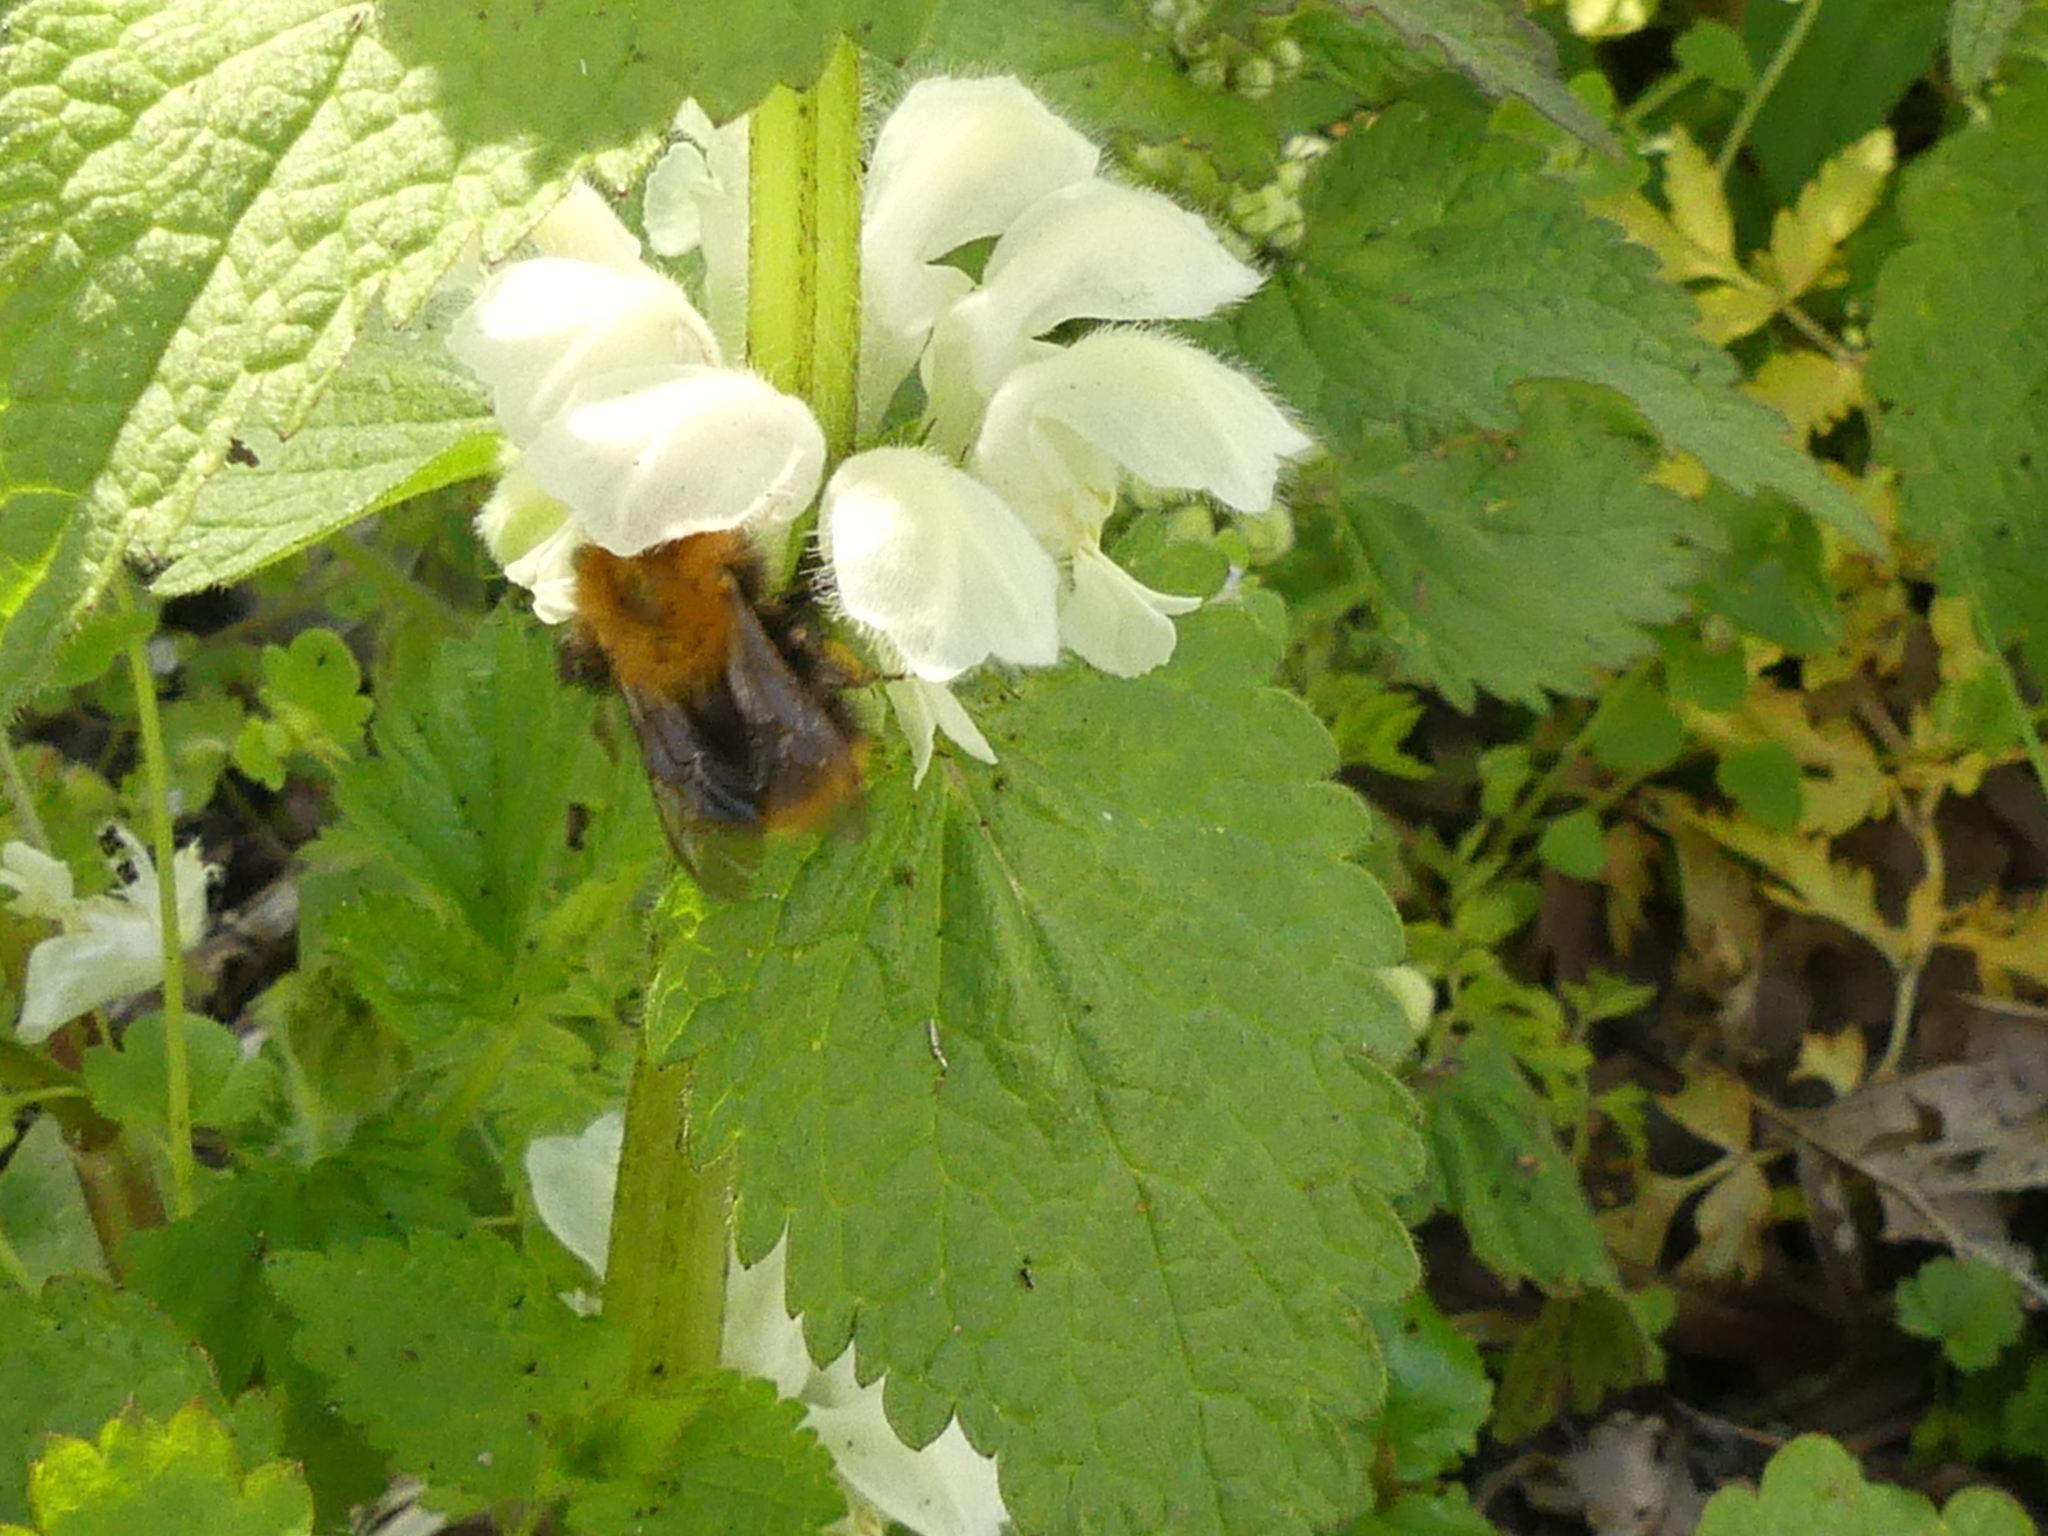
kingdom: Animalia
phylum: Arthropoda
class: Insecta
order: Hymenoptera
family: Apidae
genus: Bombus
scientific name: Bombus pascuorum
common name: Common carder bee
